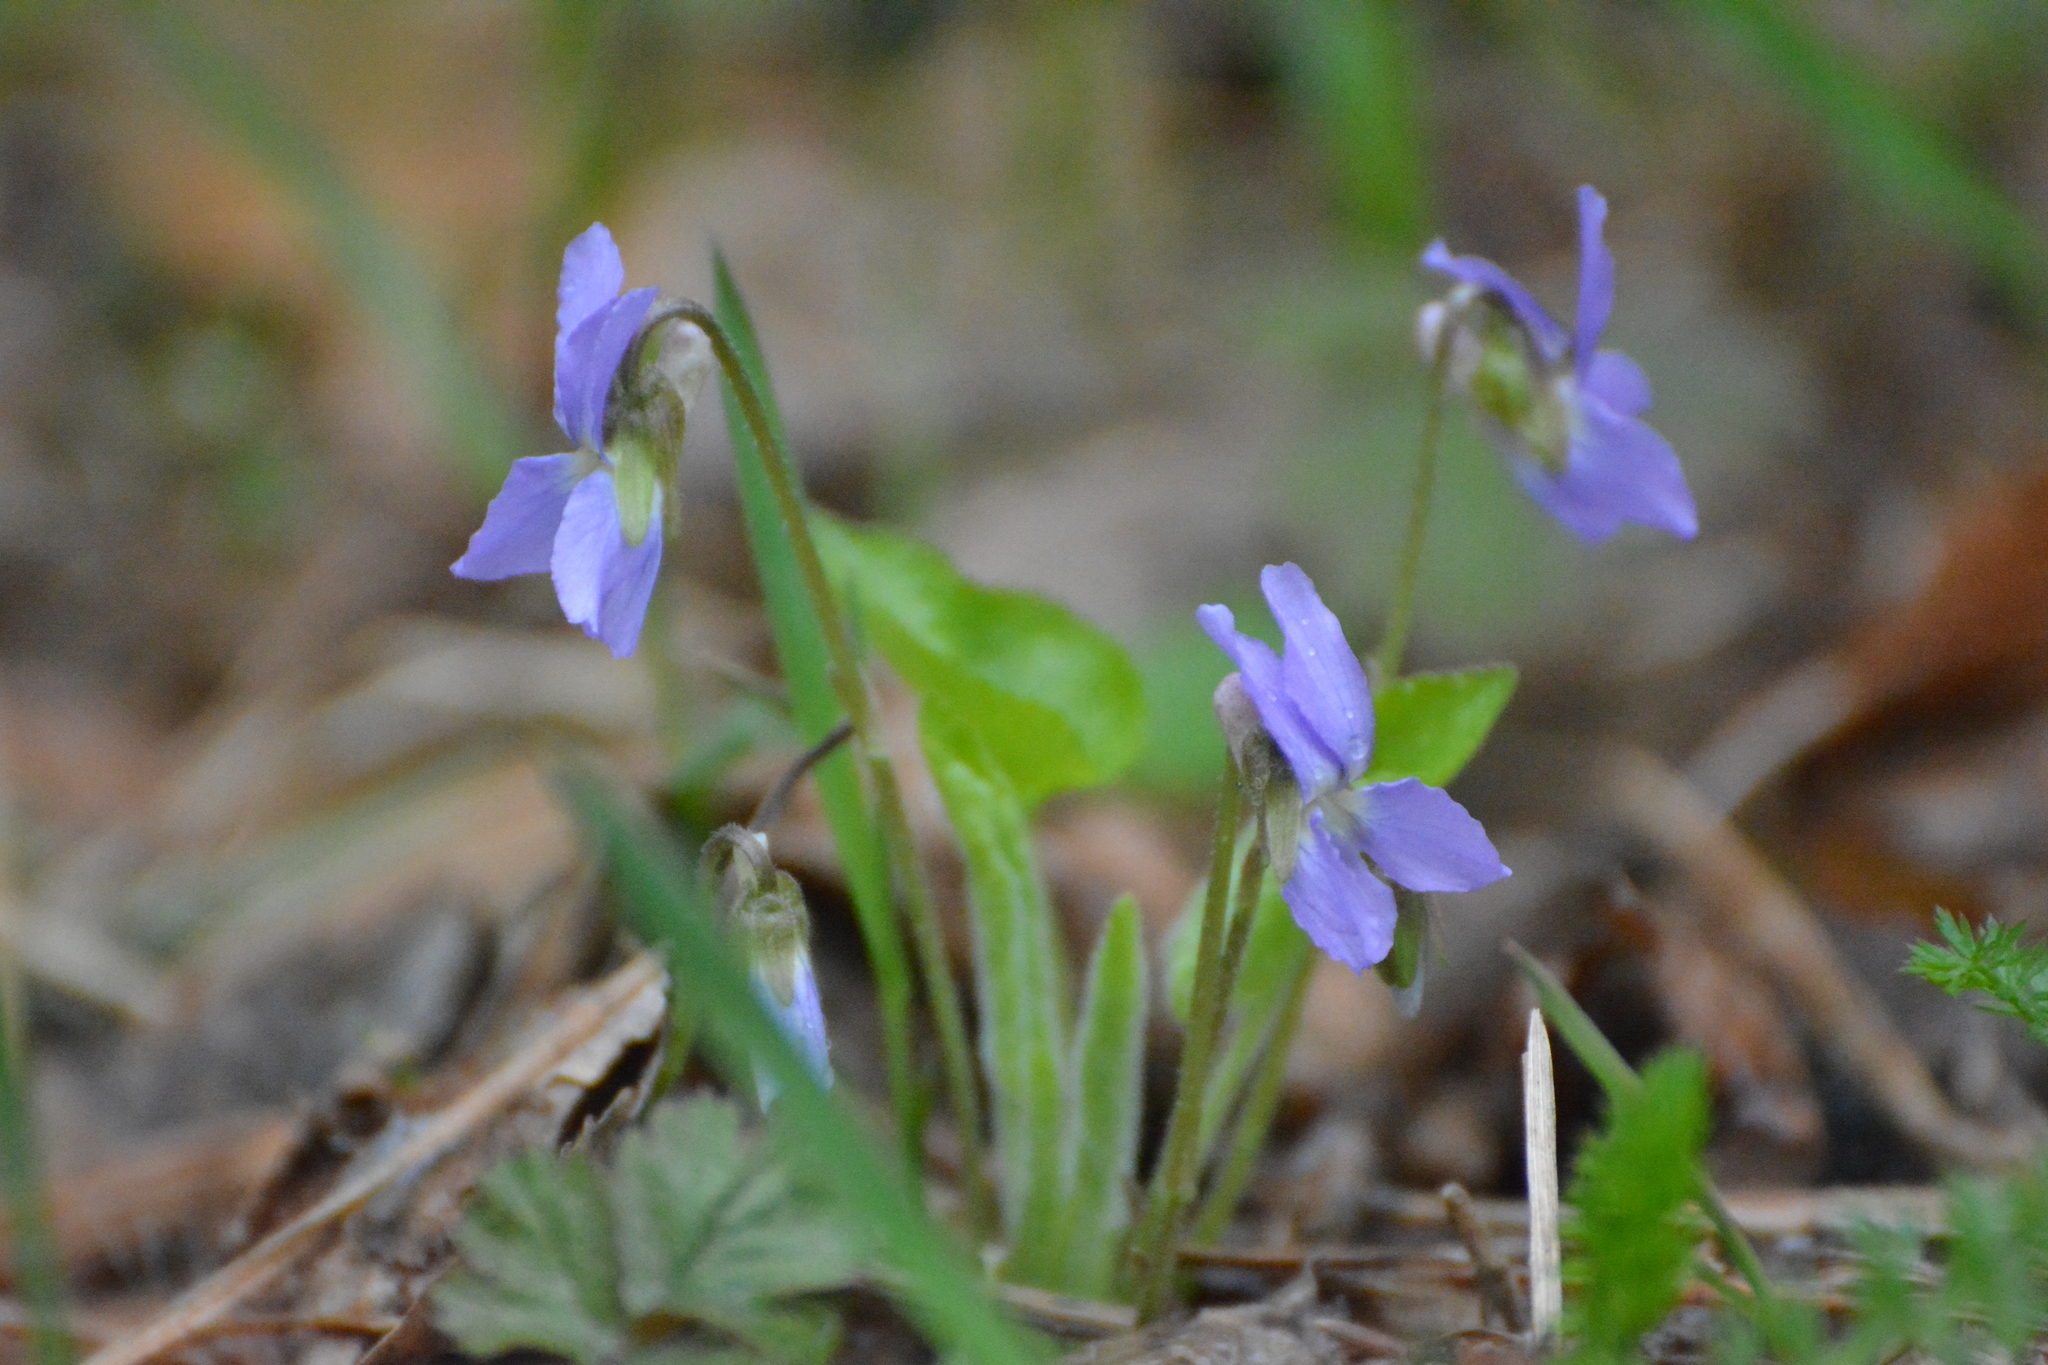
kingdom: Plantae
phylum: Tracheophyta
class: Magnoliopsida
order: Malpighiales
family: Violaceae
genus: Viola
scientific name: Viola collina
